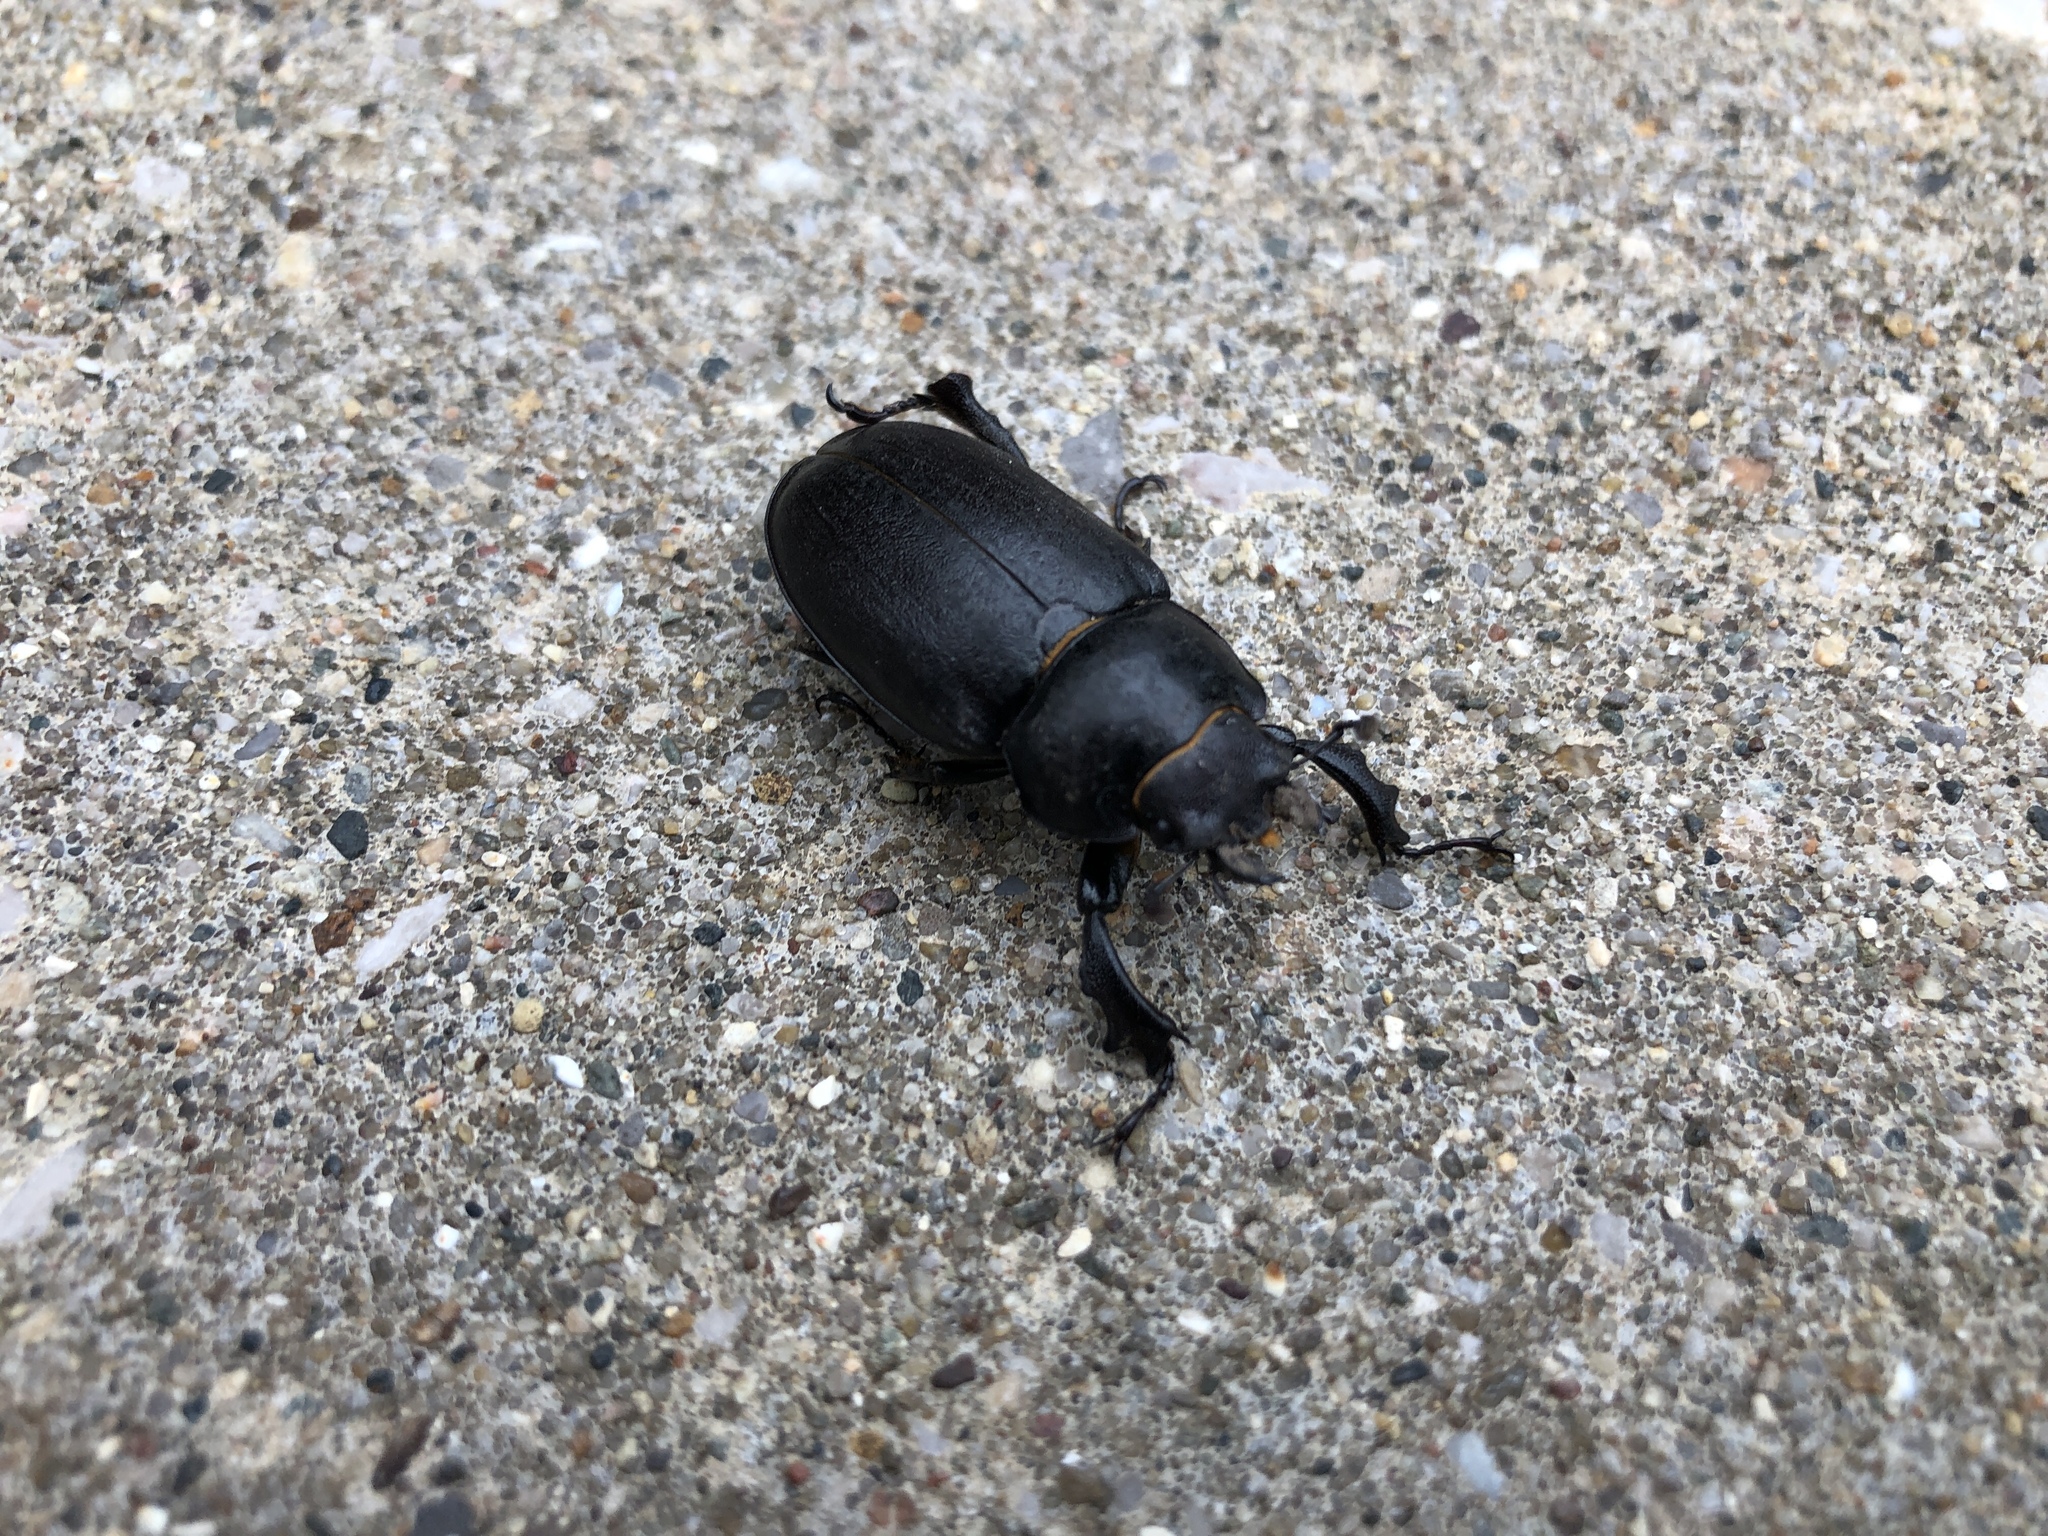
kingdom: Animalia
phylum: Arthropoda
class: Insecta
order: Coleoptera
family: Lucanidae
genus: Lucanus
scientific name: Lucanus placidus
